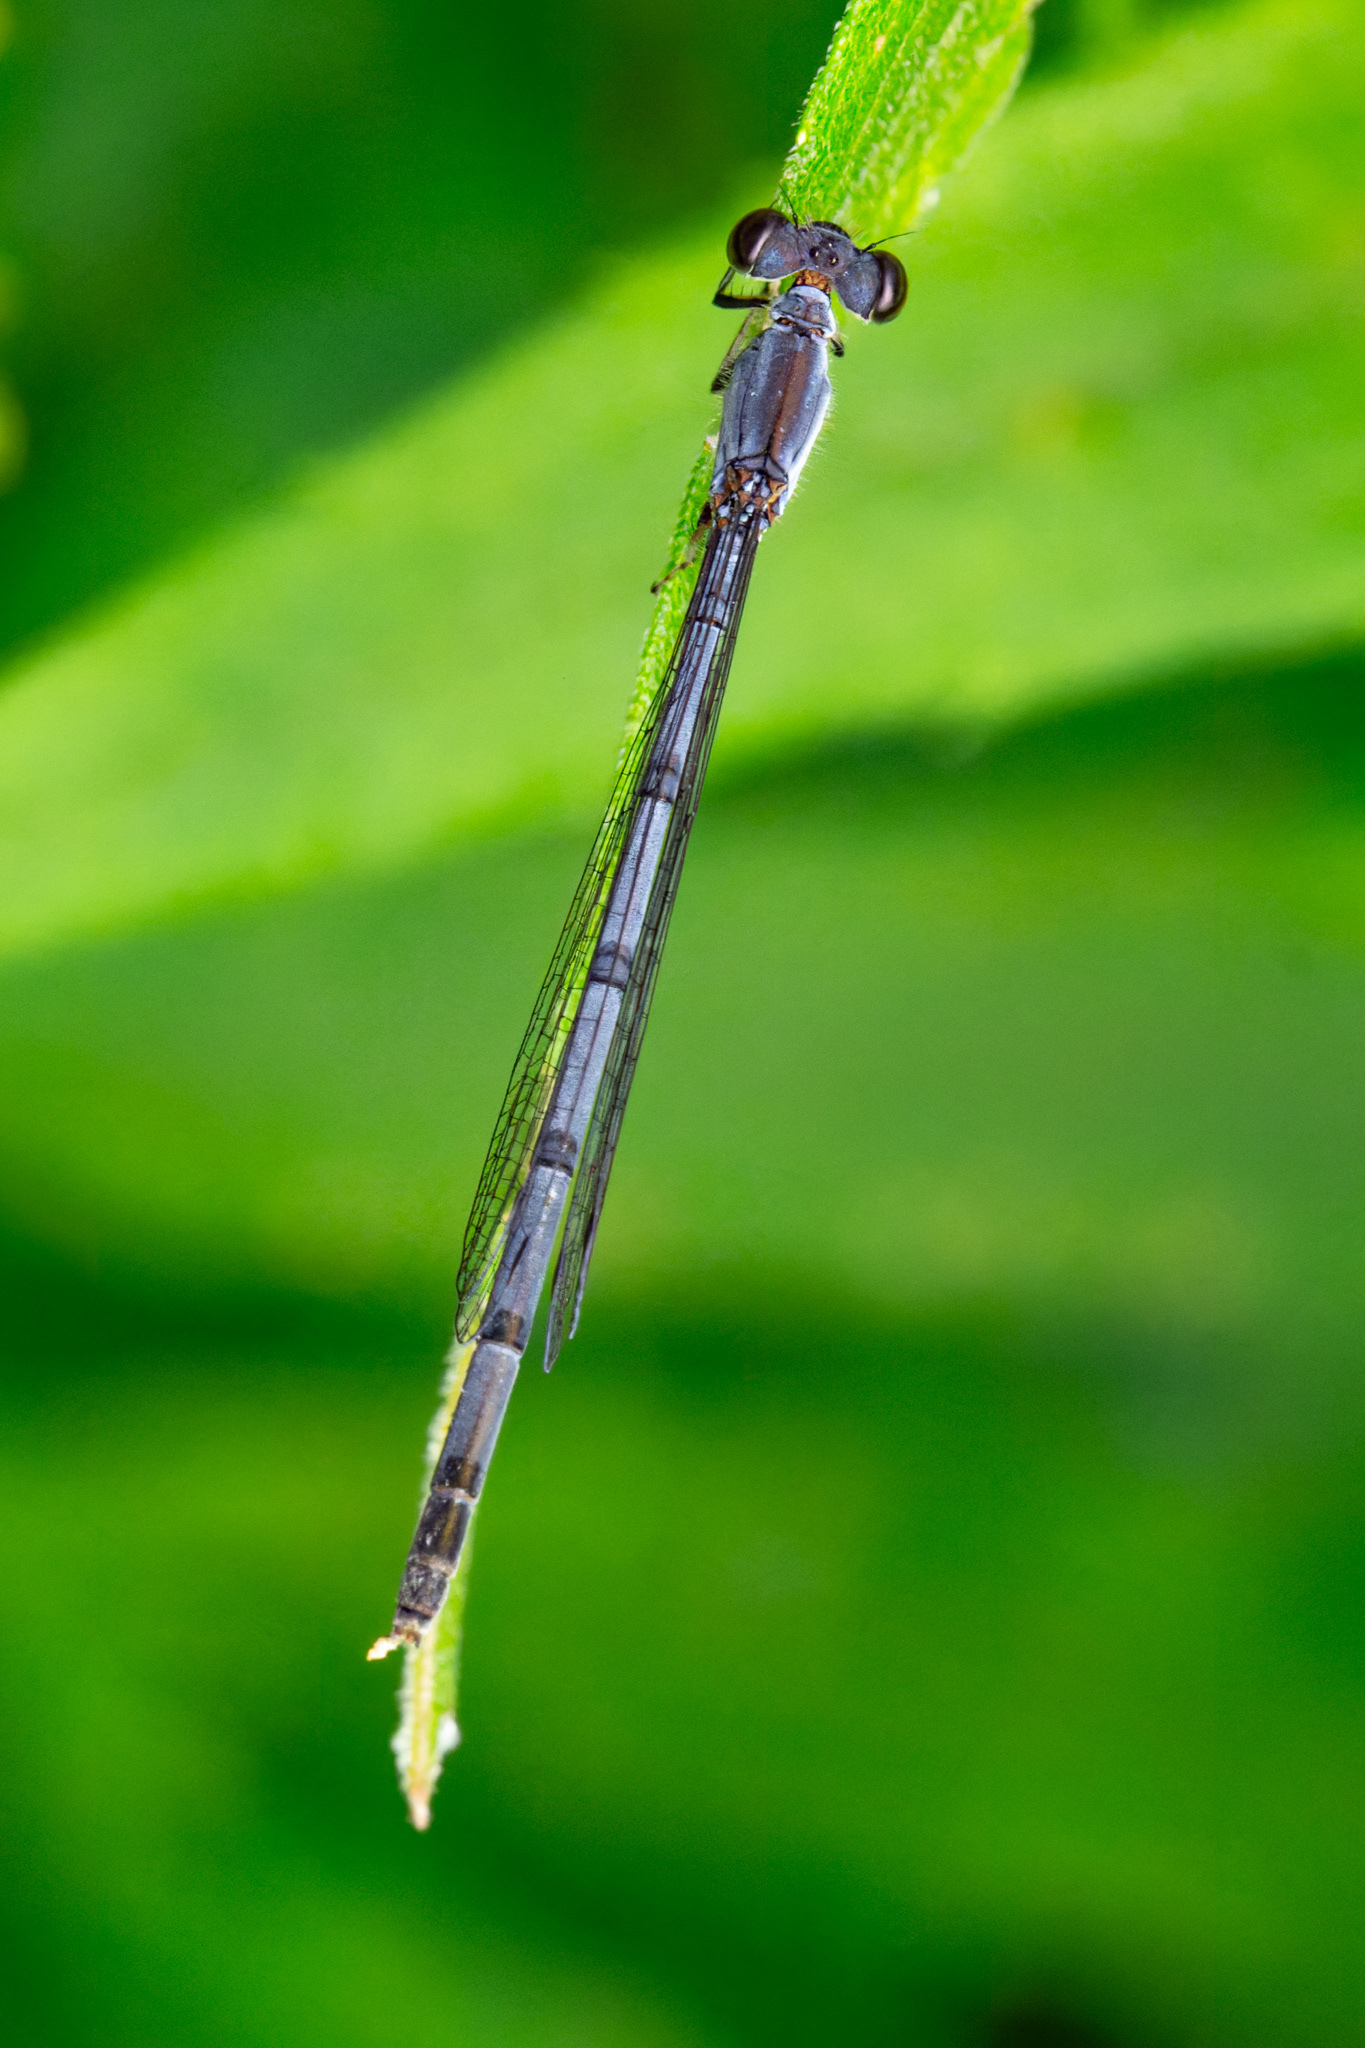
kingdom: Animalia
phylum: Arthropoda
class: Insecta
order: Odonata
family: Coenagrionidae
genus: Ischnura
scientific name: Ischnura posita
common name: Fragile forktail
